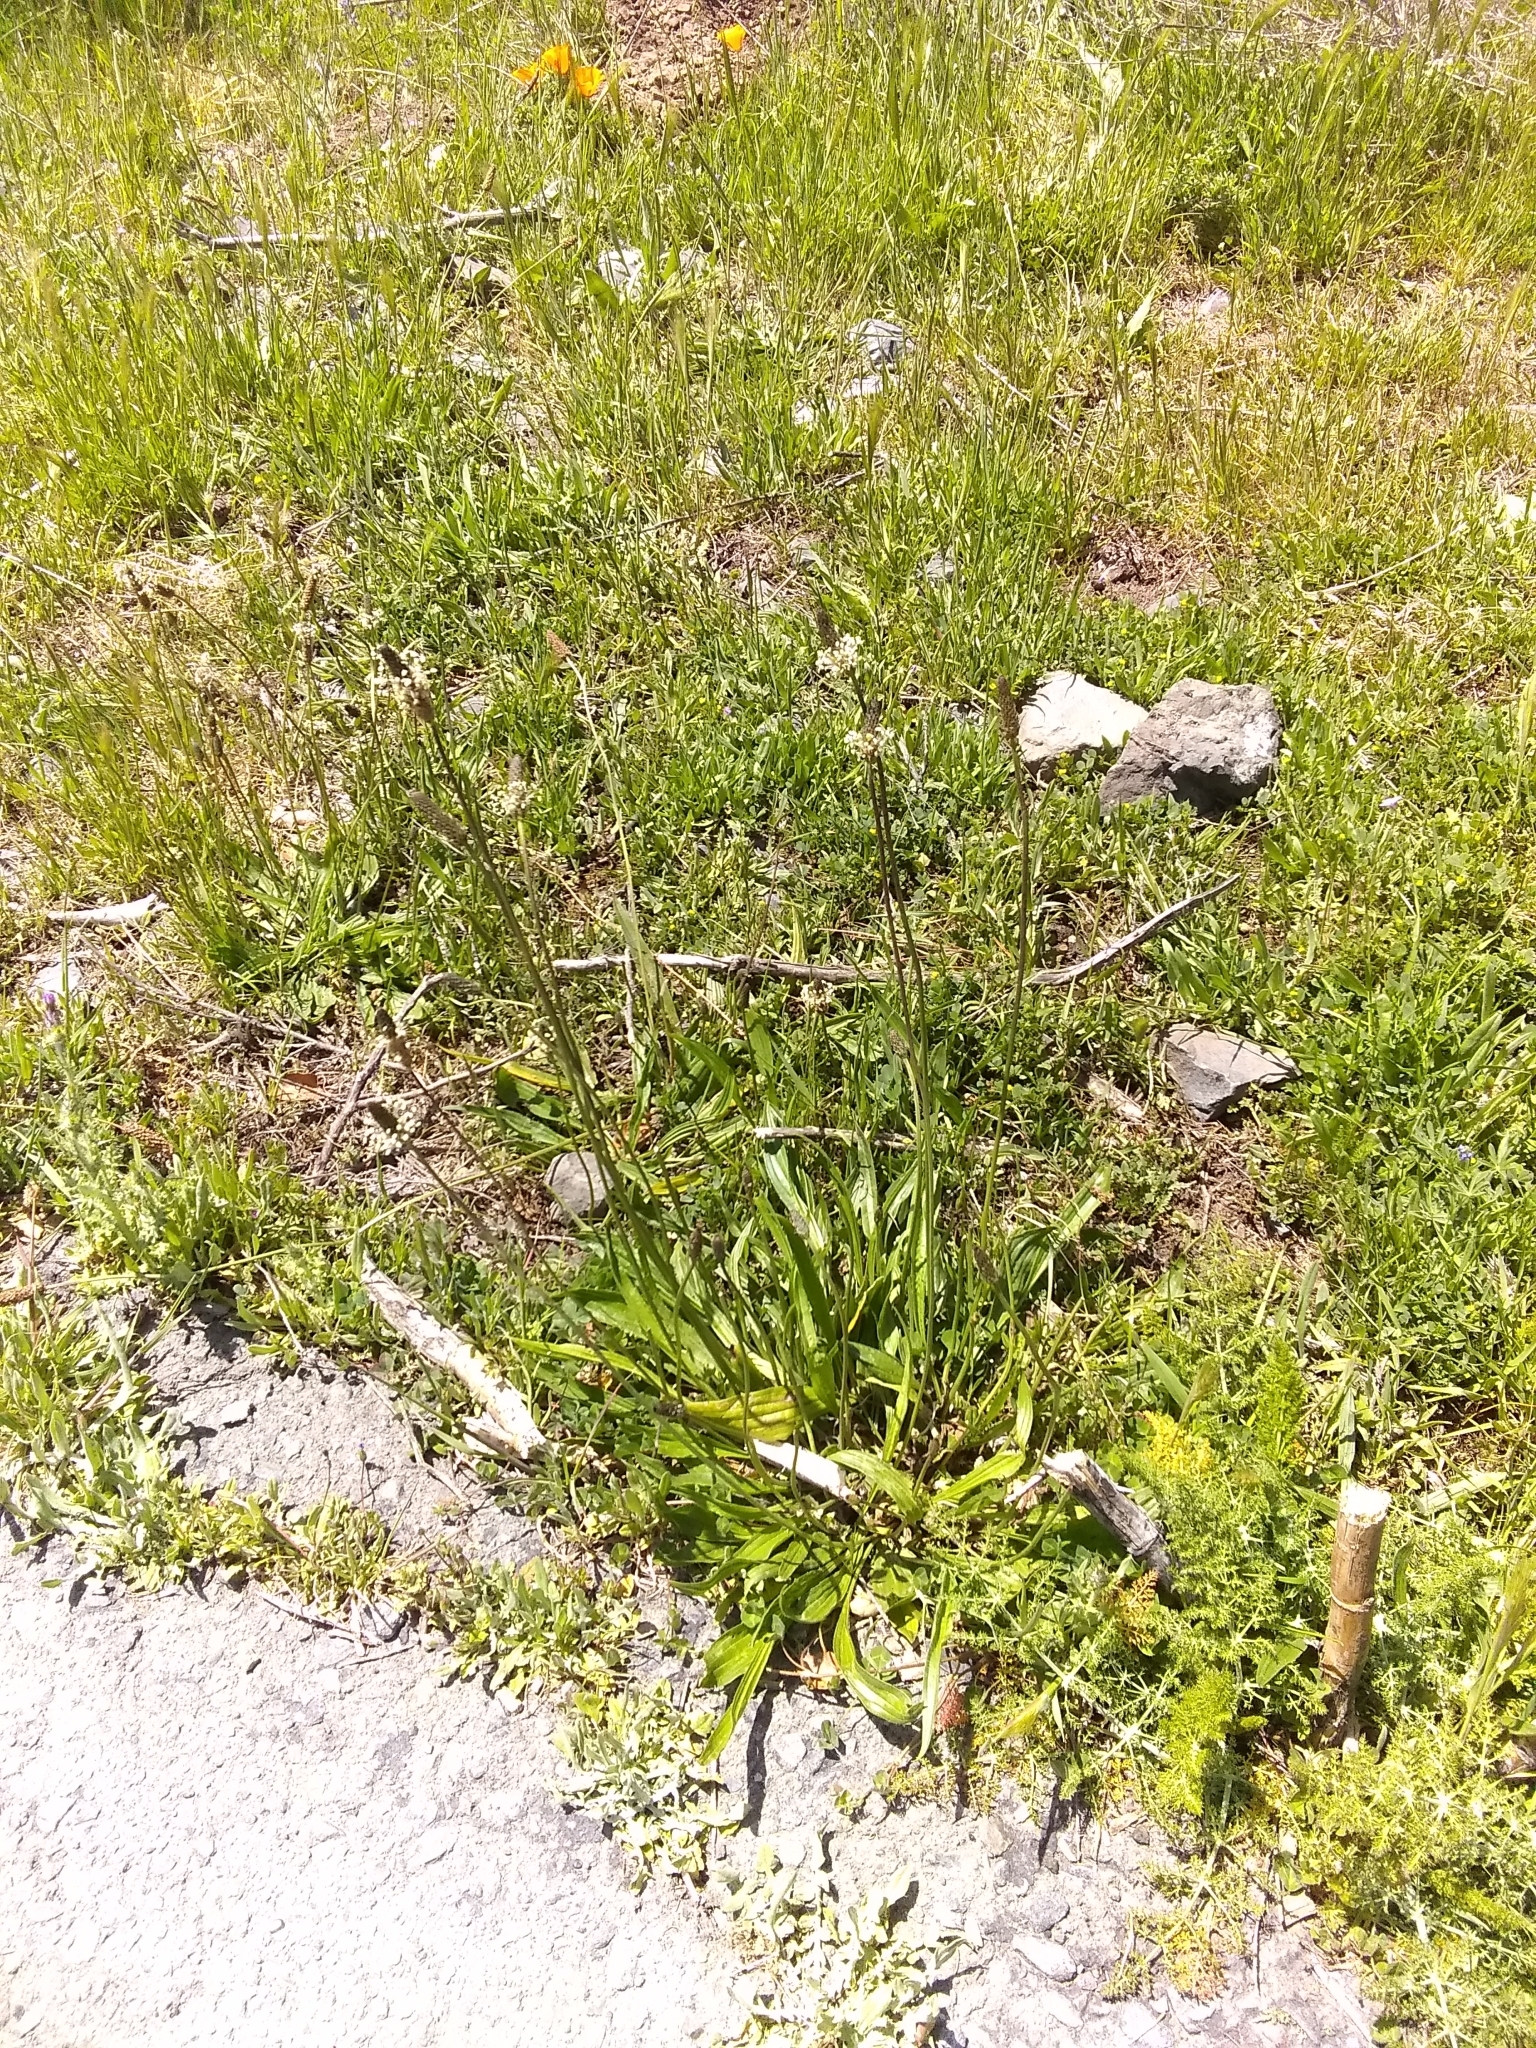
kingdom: Plantae
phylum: Tracheophyta
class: Magnoliopsida
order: Lamiales
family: Plantaginaceae
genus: Plantago
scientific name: Plantago lanceolata
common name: Ribwort plantain
